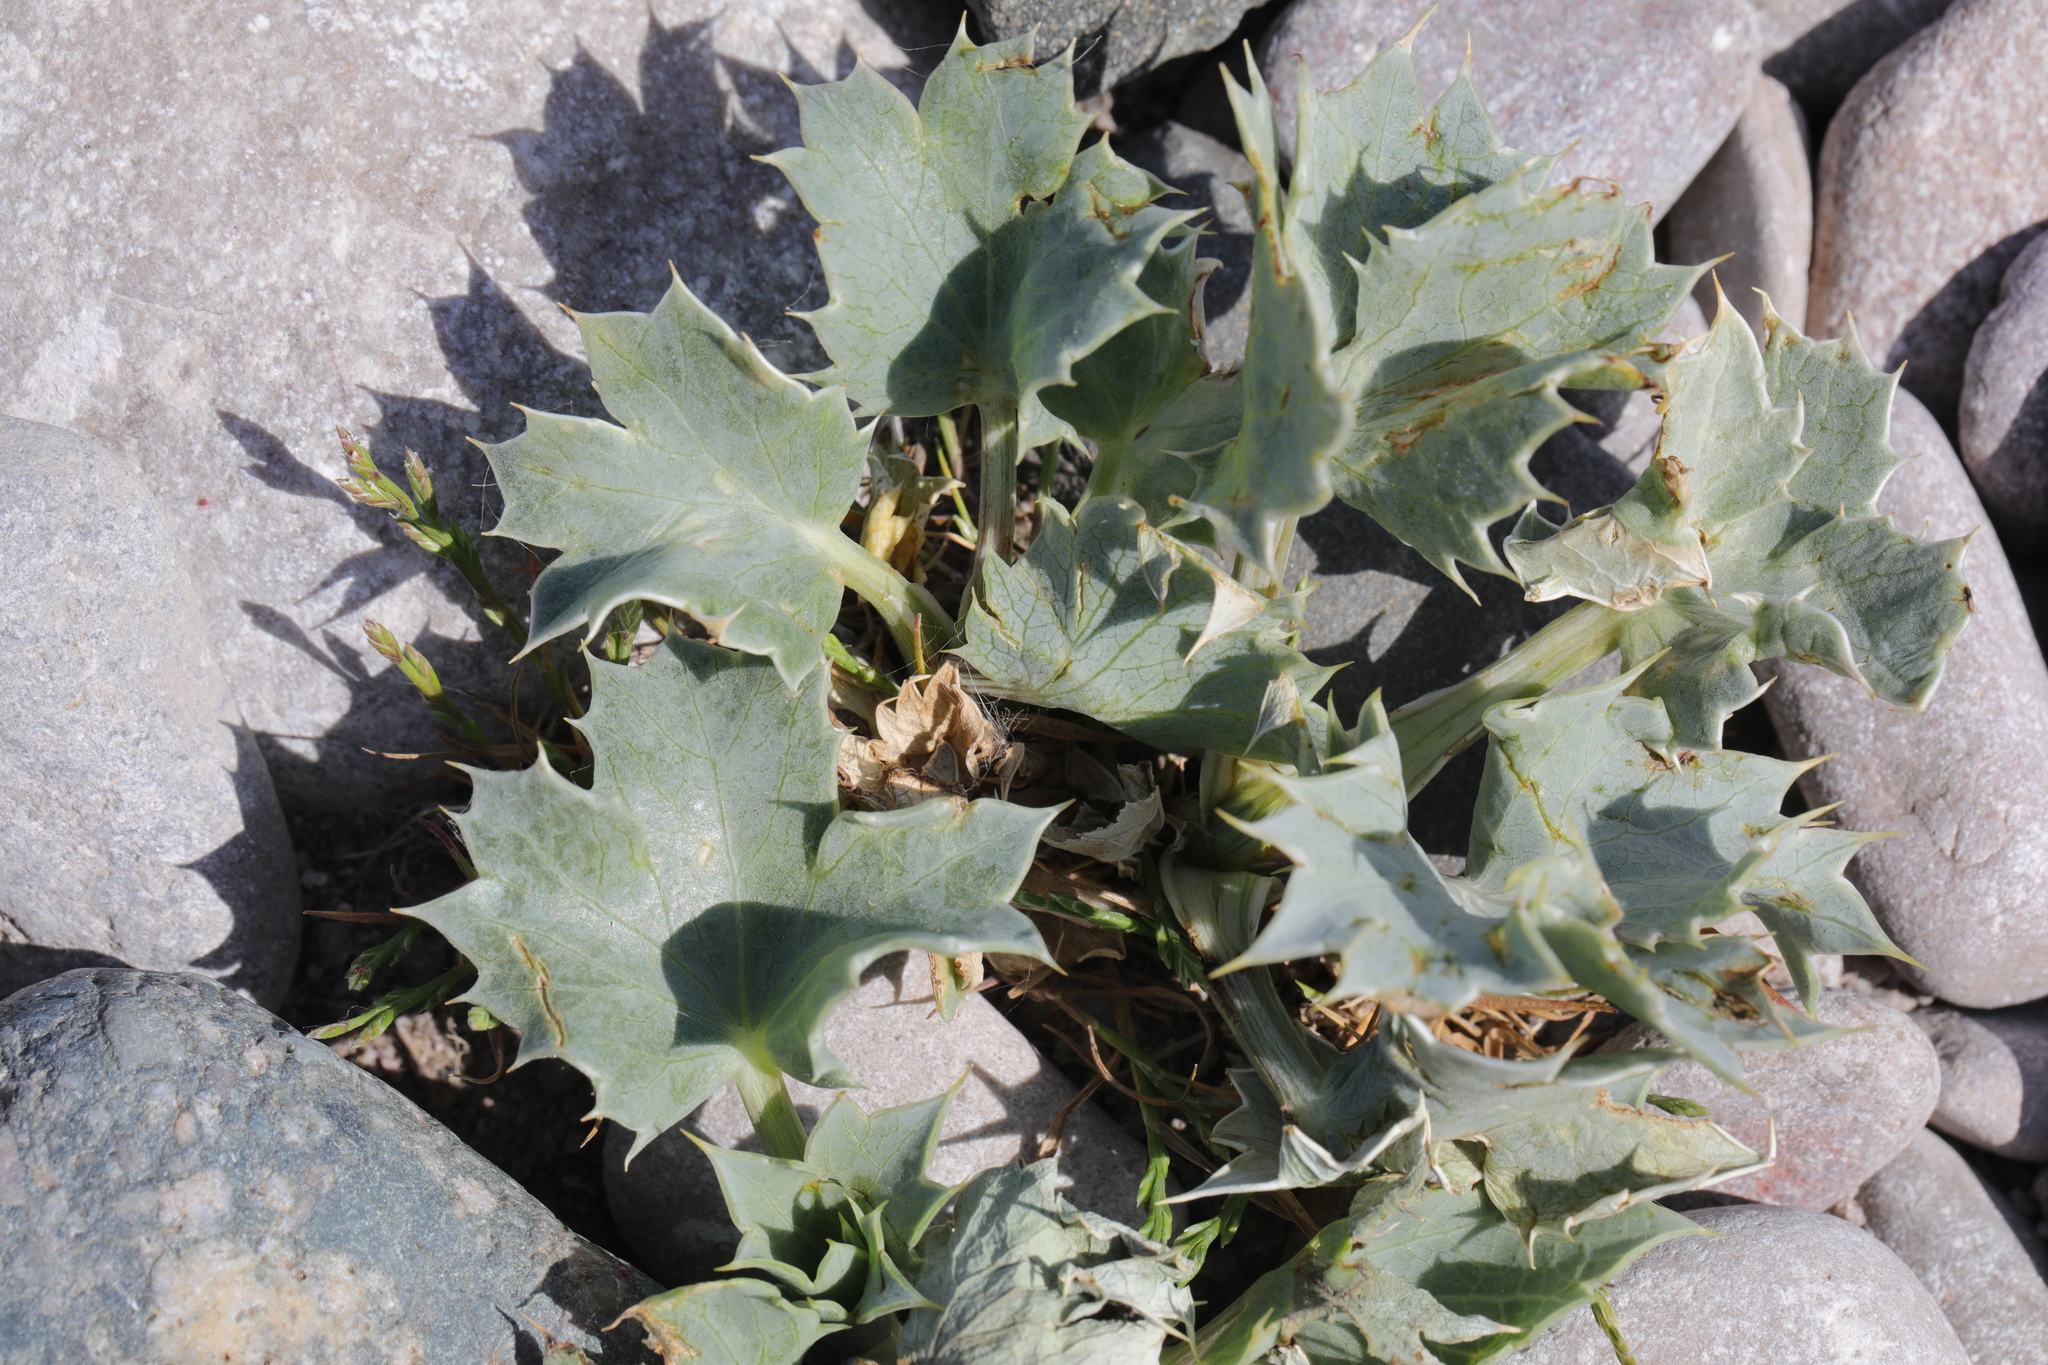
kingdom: Plantae
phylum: Tracheophyta
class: Magnoliopsida
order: Apiales
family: Apiaceae
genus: Eryngium
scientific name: Eryngium maritimum
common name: Sea-holly
